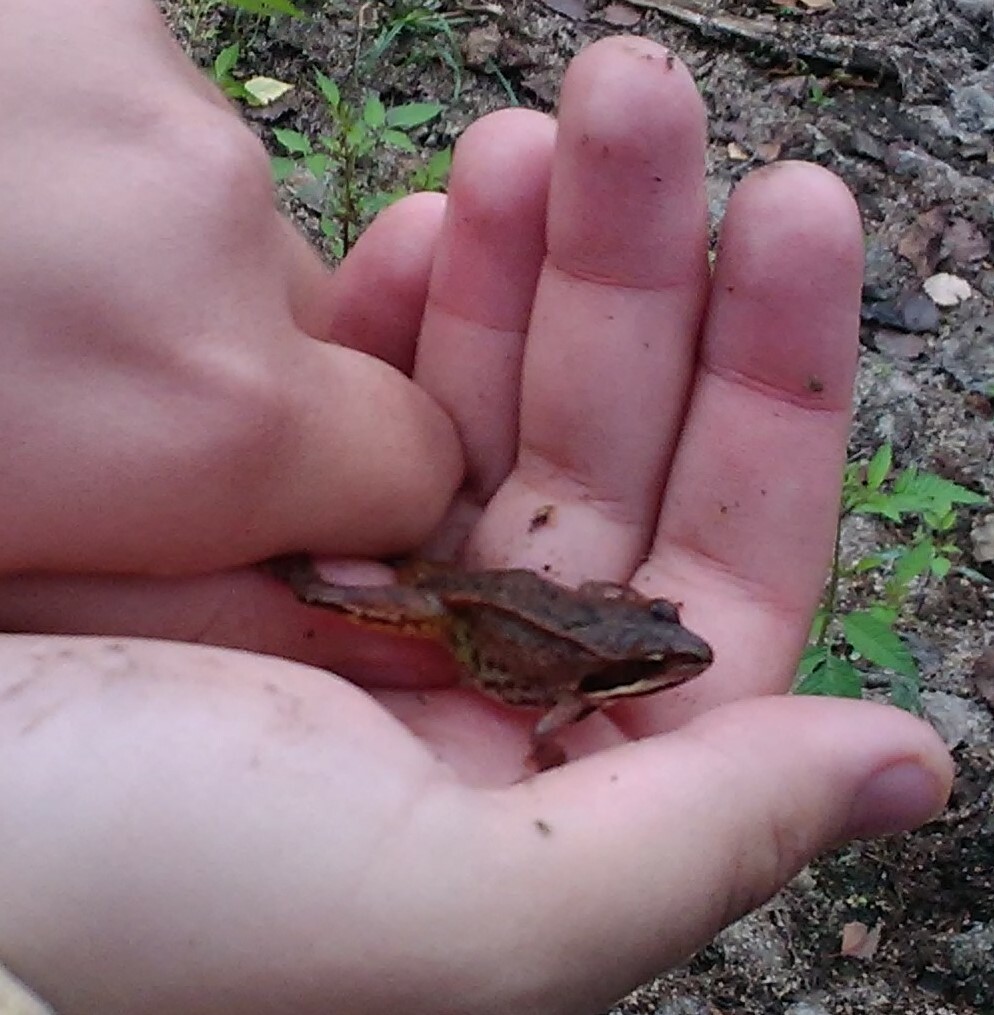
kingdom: Animalia
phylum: Chordata
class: Amphibia
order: Anura
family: Ranidae
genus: Rana
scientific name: Rana arvalis
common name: Moor frog
